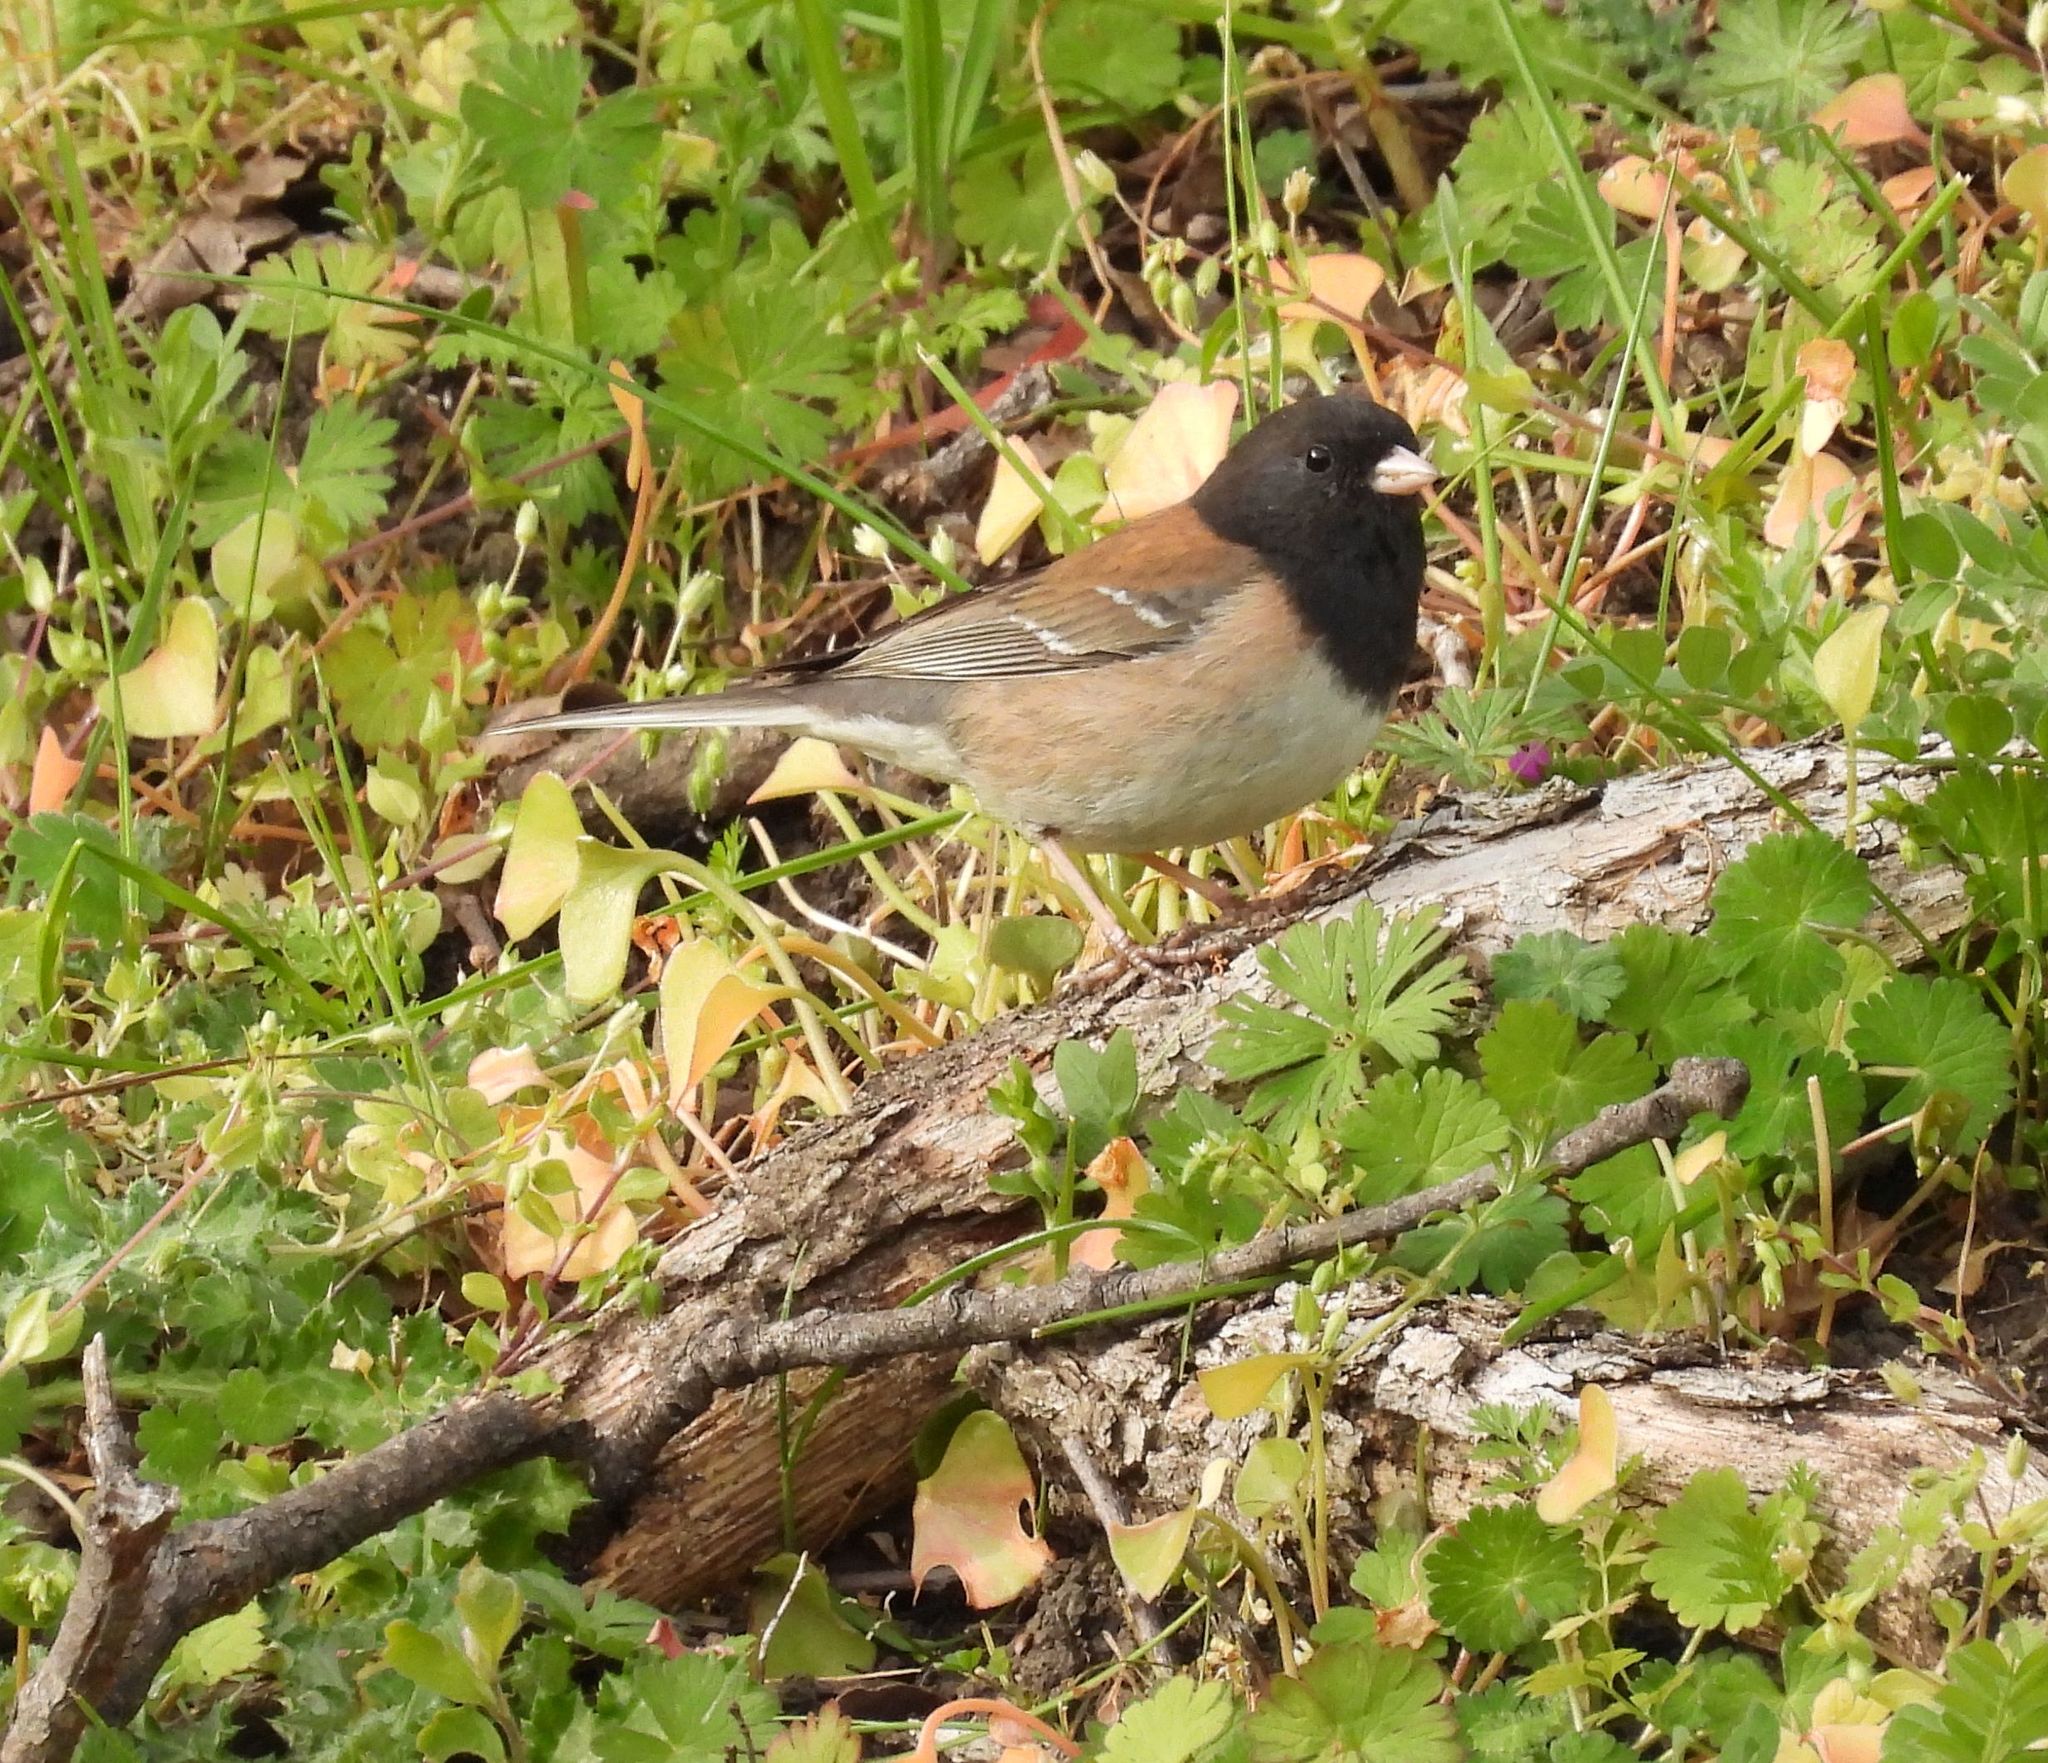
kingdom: Animalia
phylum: Chordata
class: Aves
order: Passeriformes
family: Passerellidae
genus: Junco
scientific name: Junco hyemalis
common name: Dark-eyed junco
